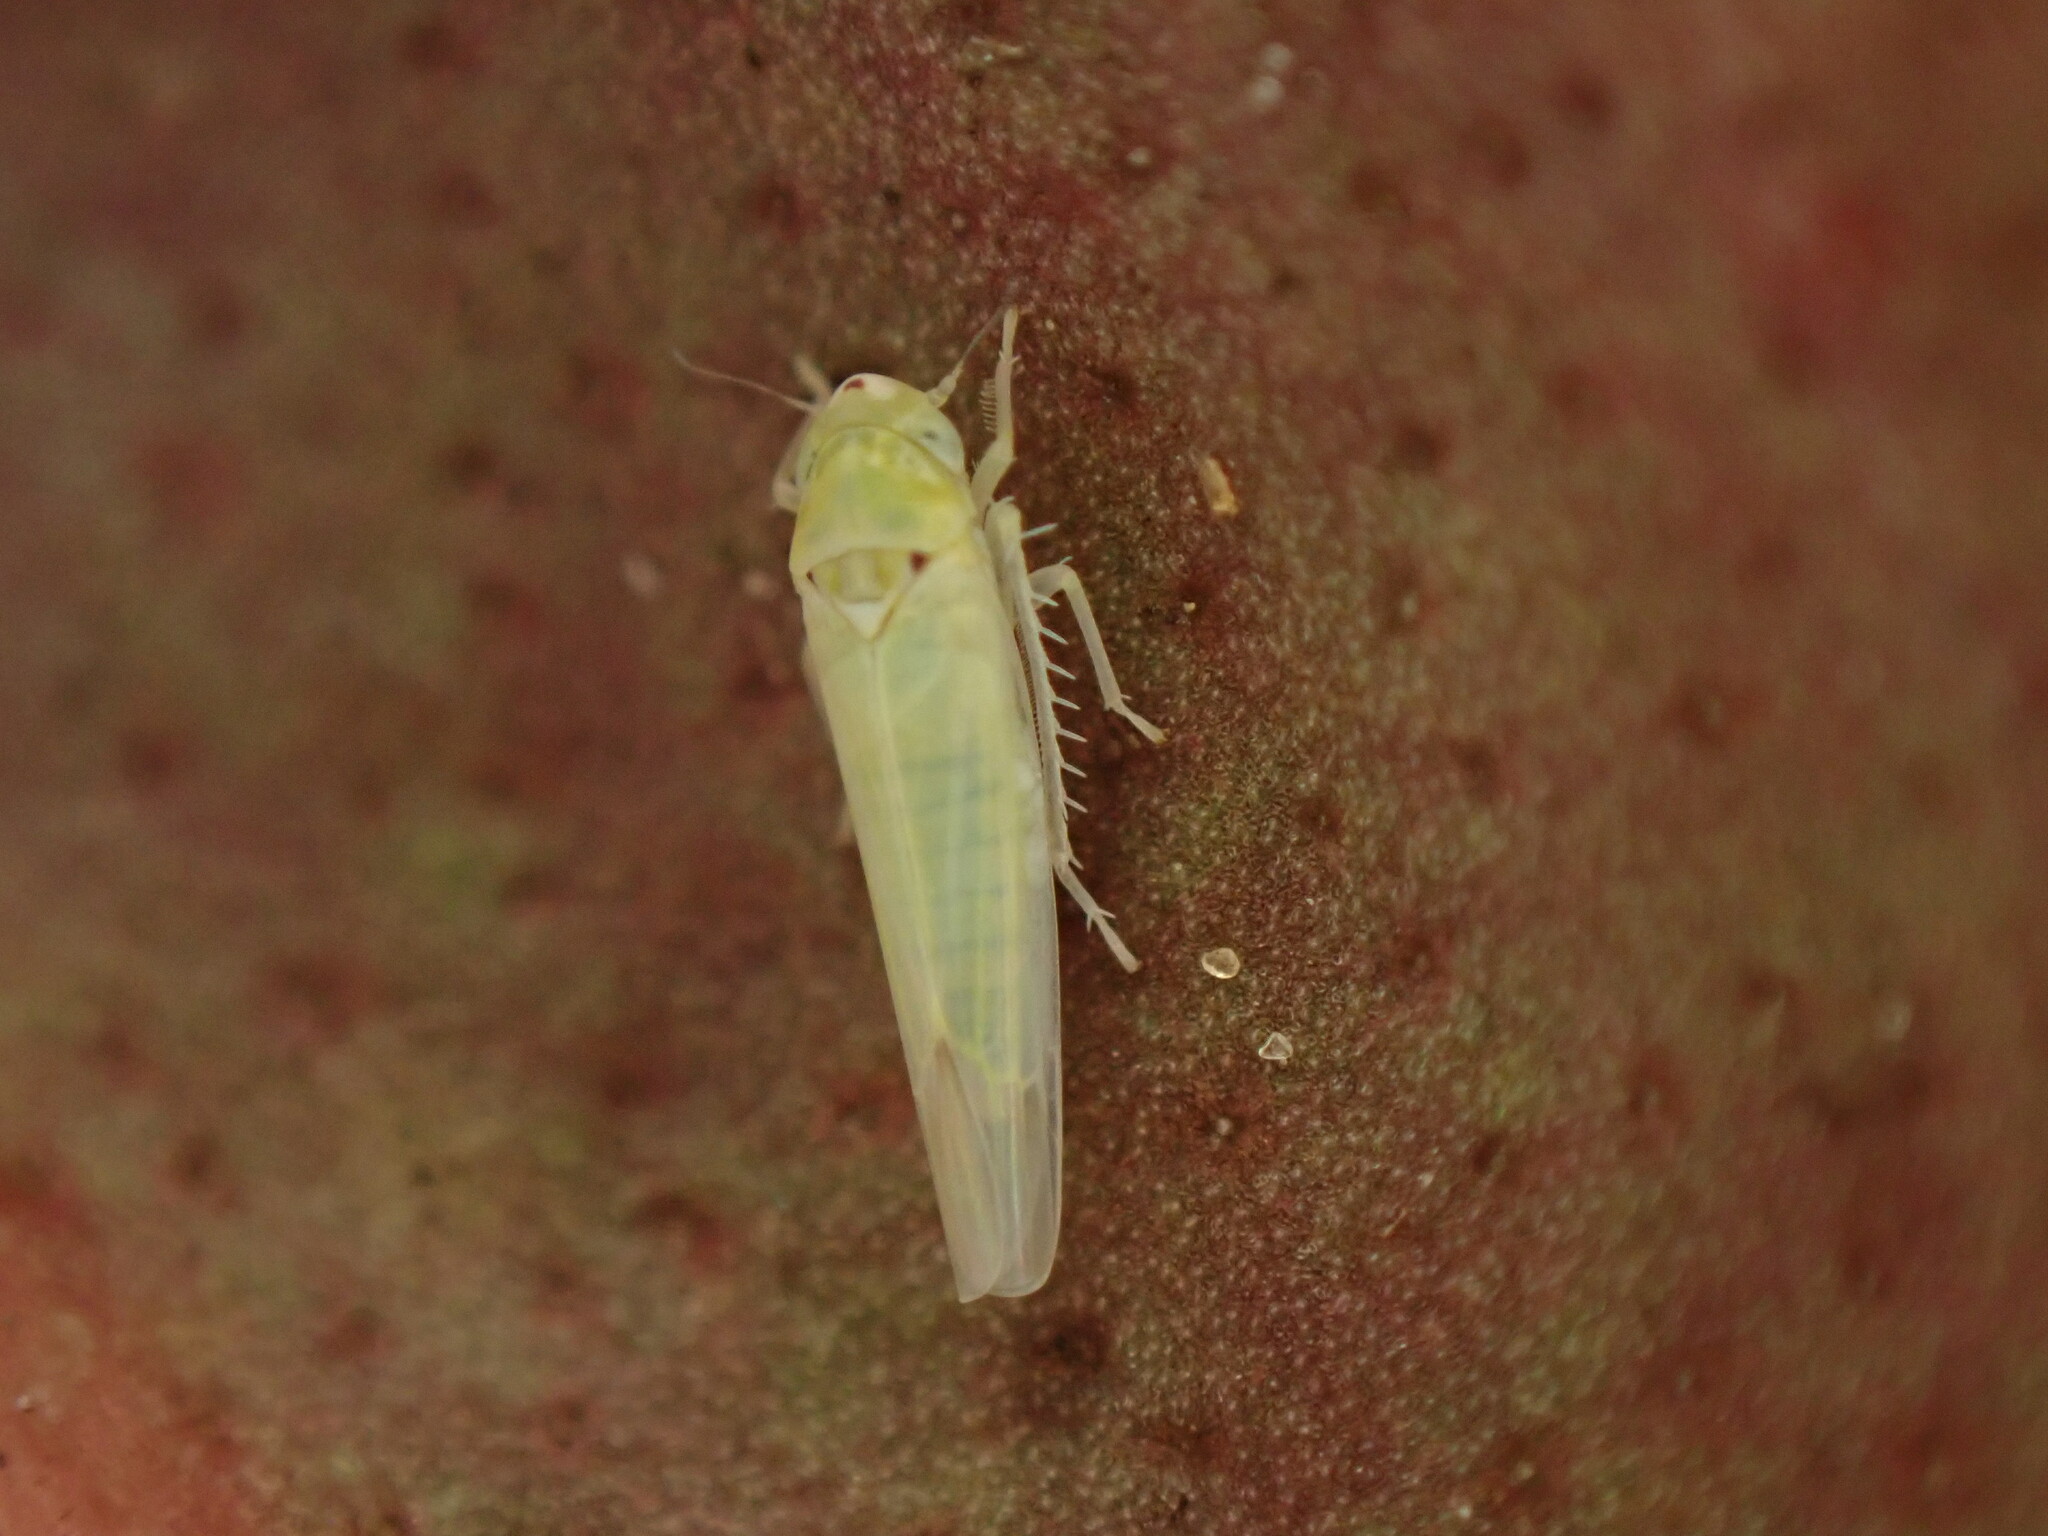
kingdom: Animalia
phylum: Arthropoda
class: Insecta
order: Hemiptera
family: Cicadellidae
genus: Zygina
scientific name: Zygina nivea
